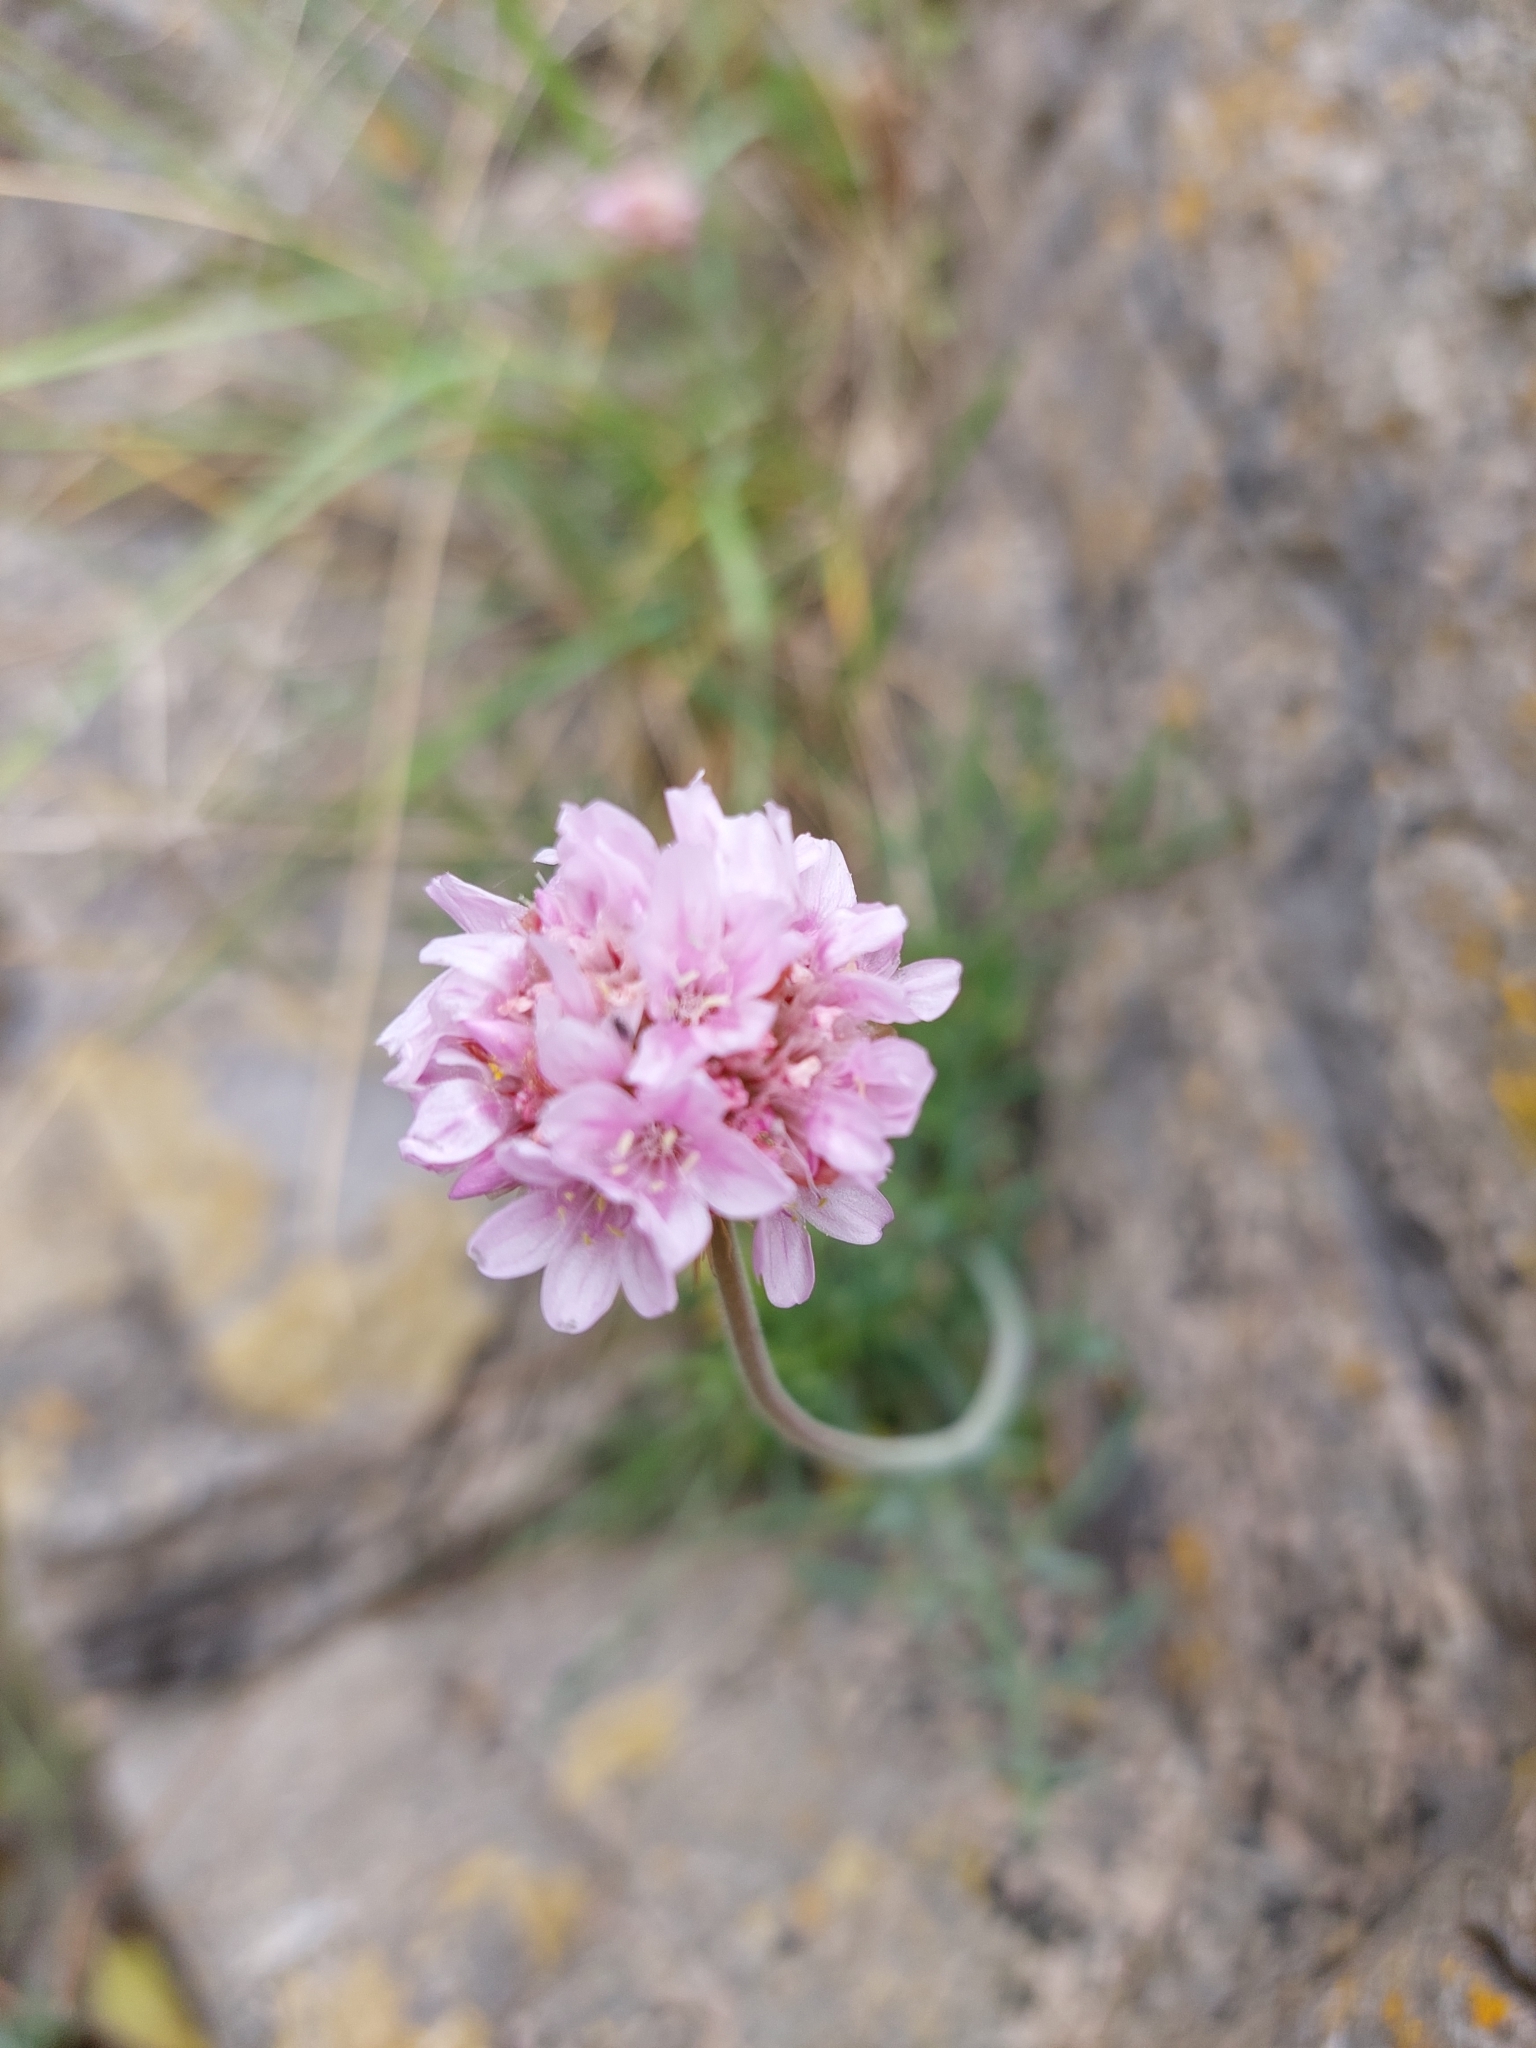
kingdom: Plantae
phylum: Tracheophyta
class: Magnoliopsida
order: Caryophyllales
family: Plumbaginaceae
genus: Armeria
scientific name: Armeria maritima
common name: Thrift
